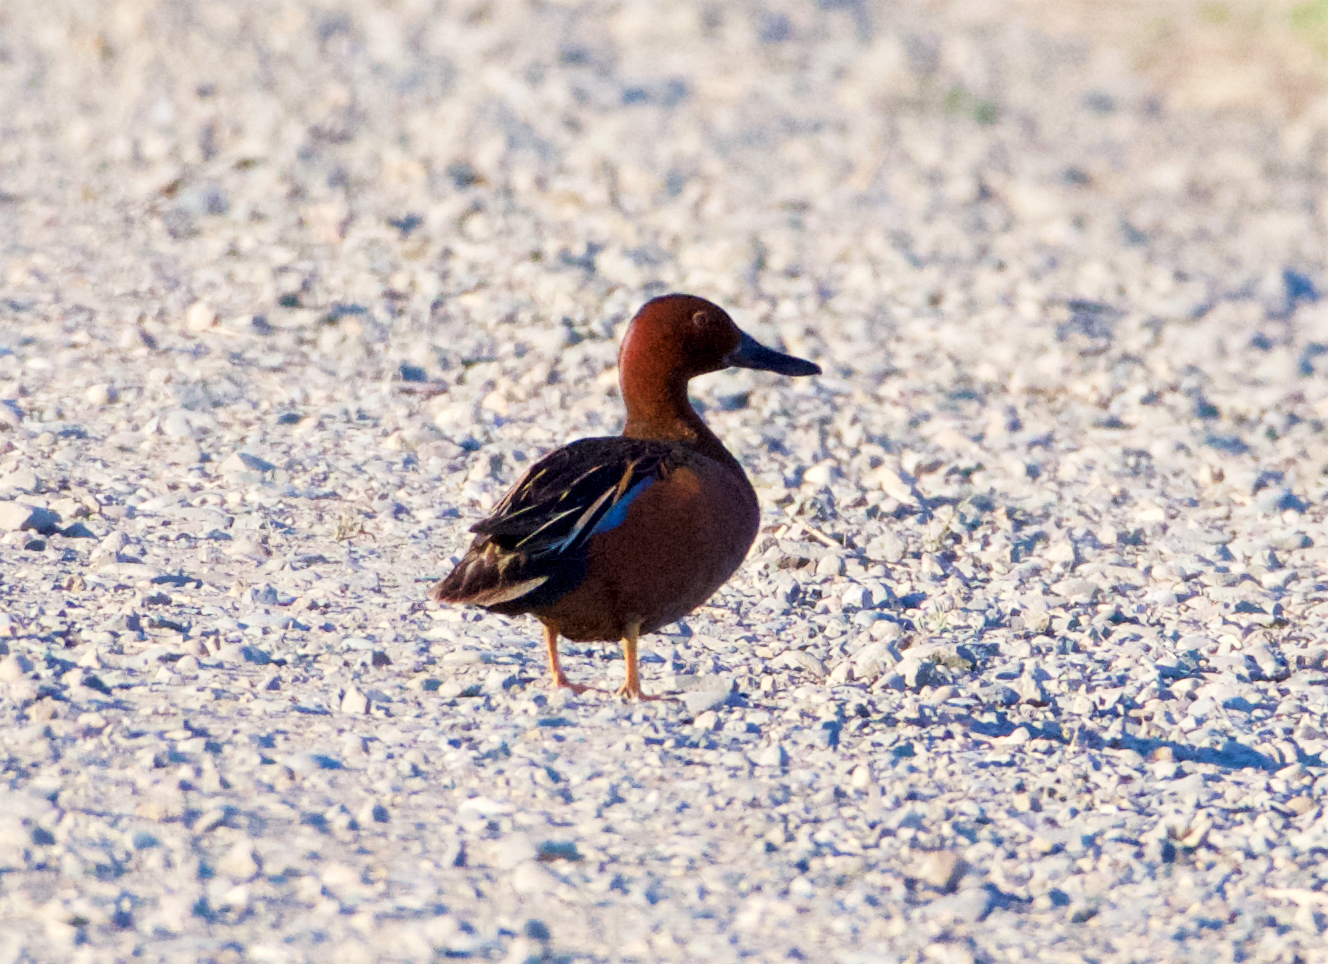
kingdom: Animalia
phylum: Chordata
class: Aves
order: Anseriformes
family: Anatidae
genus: Spatula
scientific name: Spatula cyanoptera
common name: Cinnamon teal
